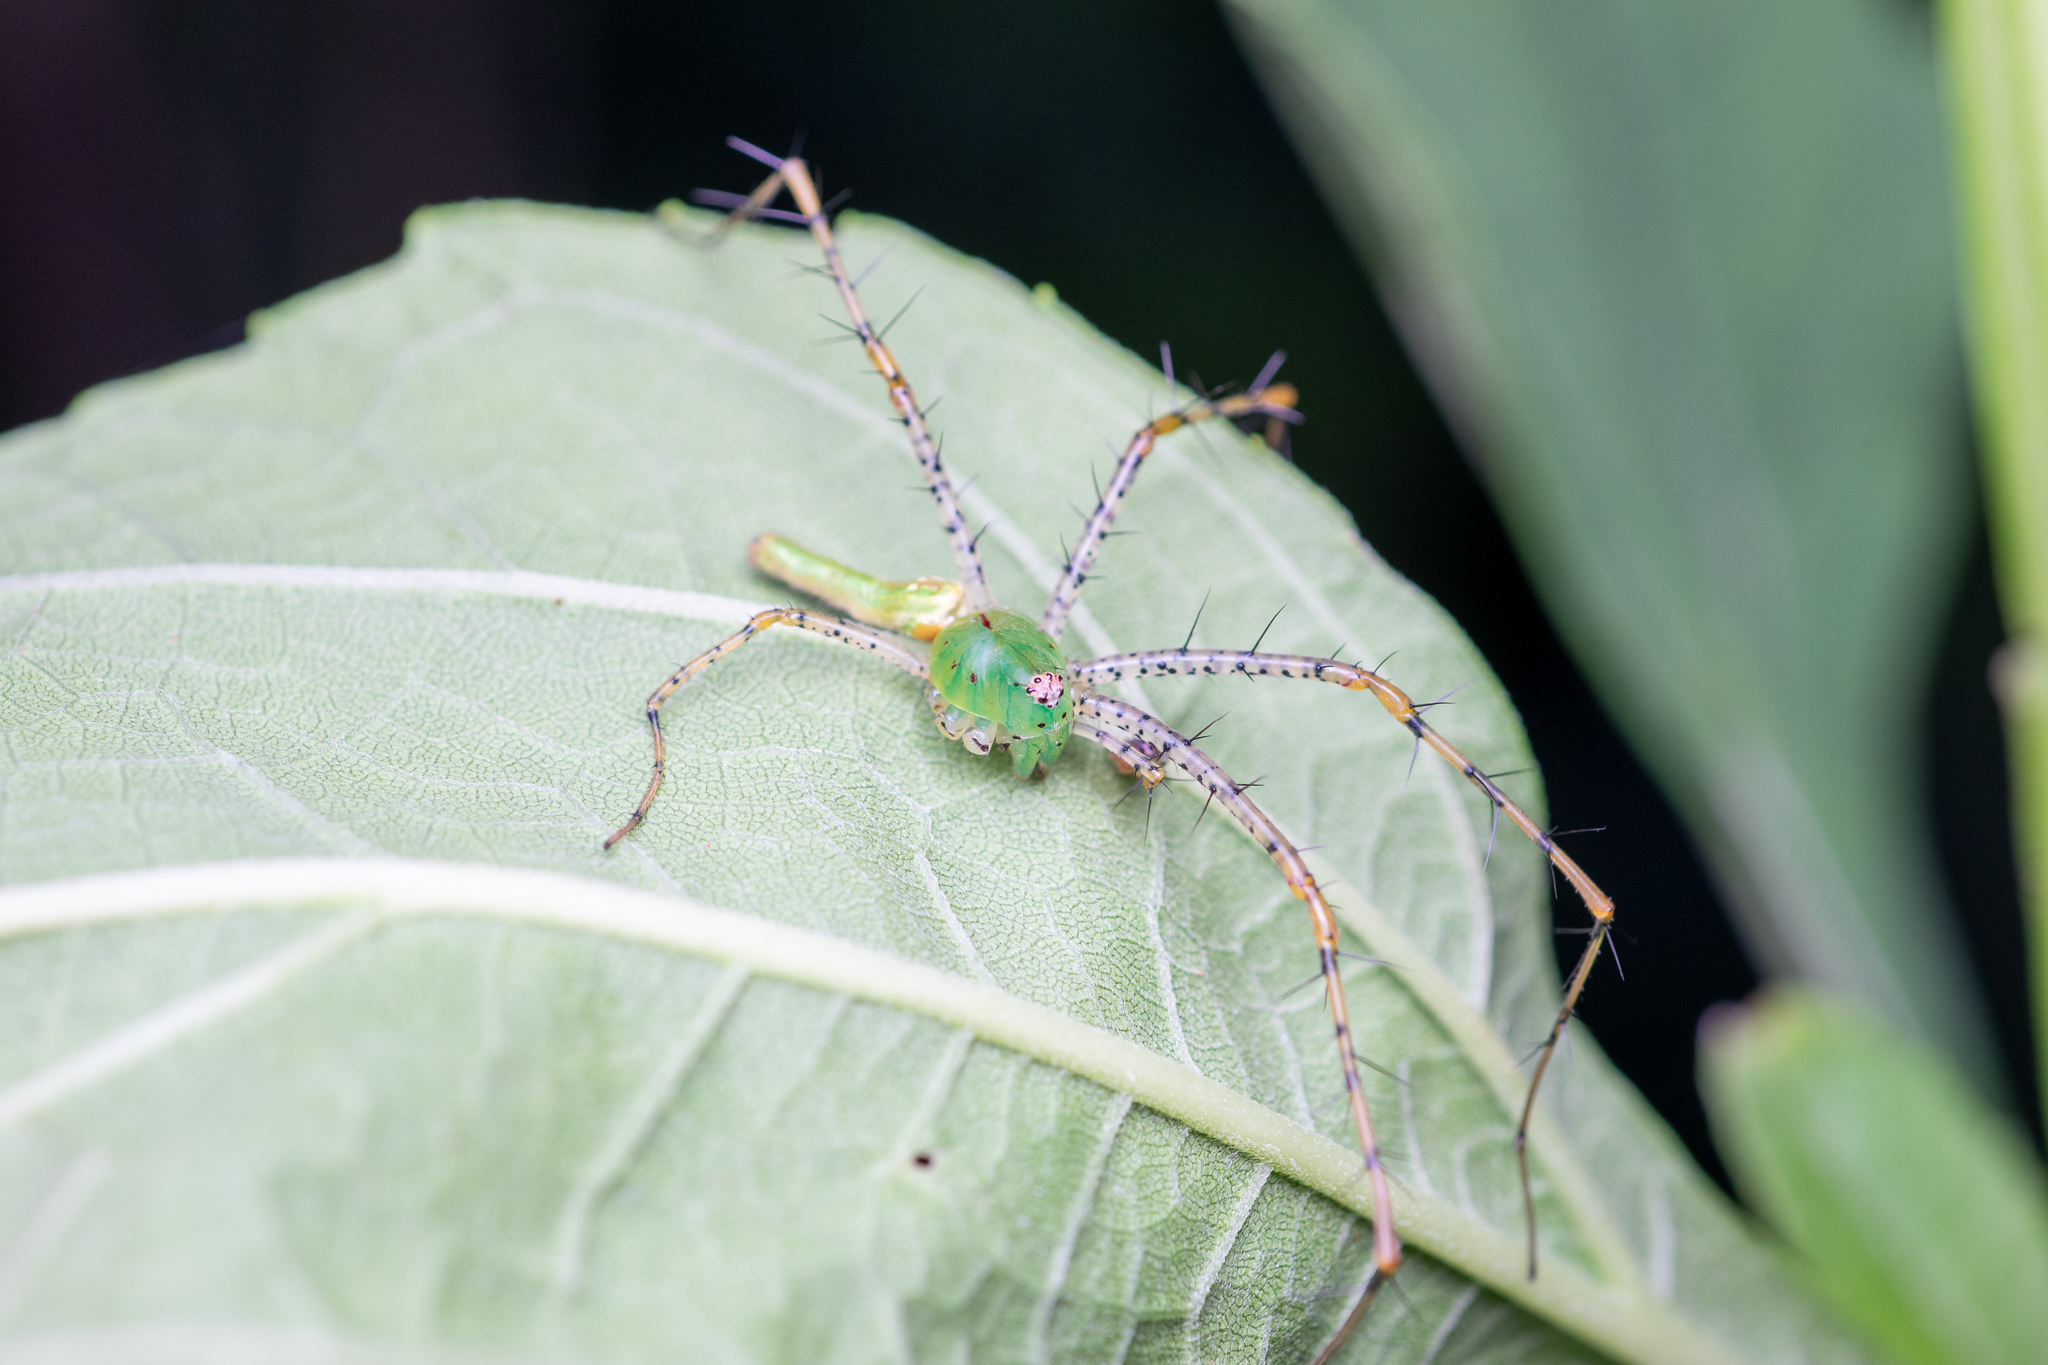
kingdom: Animalia
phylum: Arthropoda
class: Arachnida
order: Araneae
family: Oxyopidae
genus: Peucetia
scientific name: Peucetia viridans
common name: Lynx spiders
